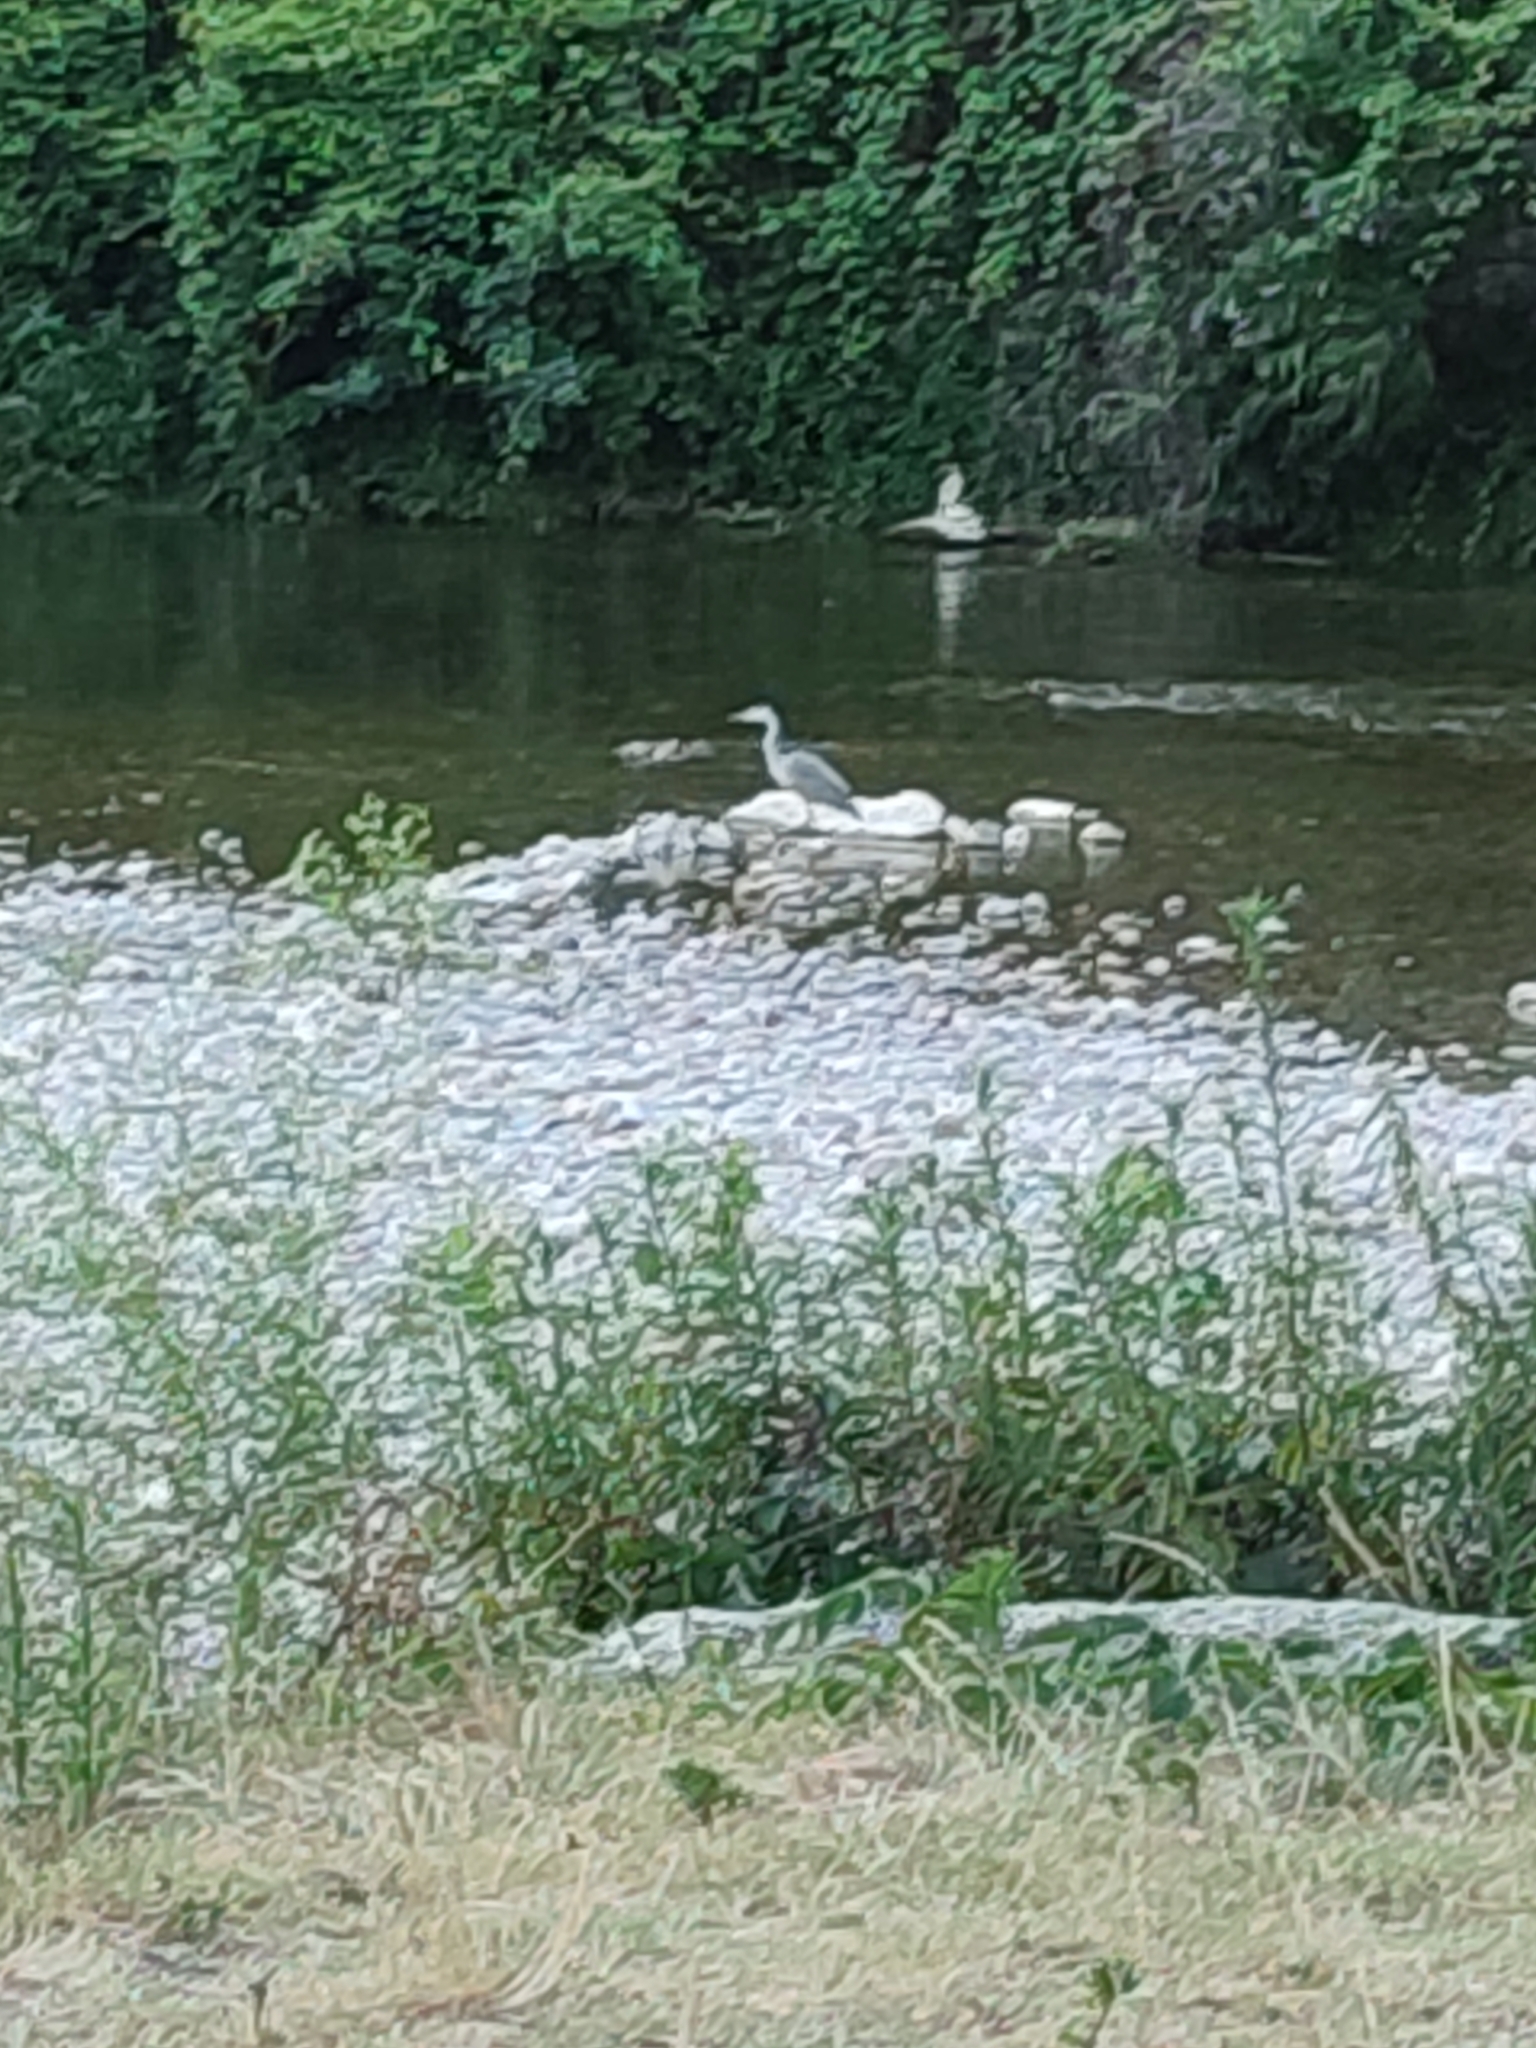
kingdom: Animalia
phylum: Chordata
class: Aves
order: Pelecaniformes
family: Ardeidae
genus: Ardea
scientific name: Ardea cinerea
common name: Grey heron
